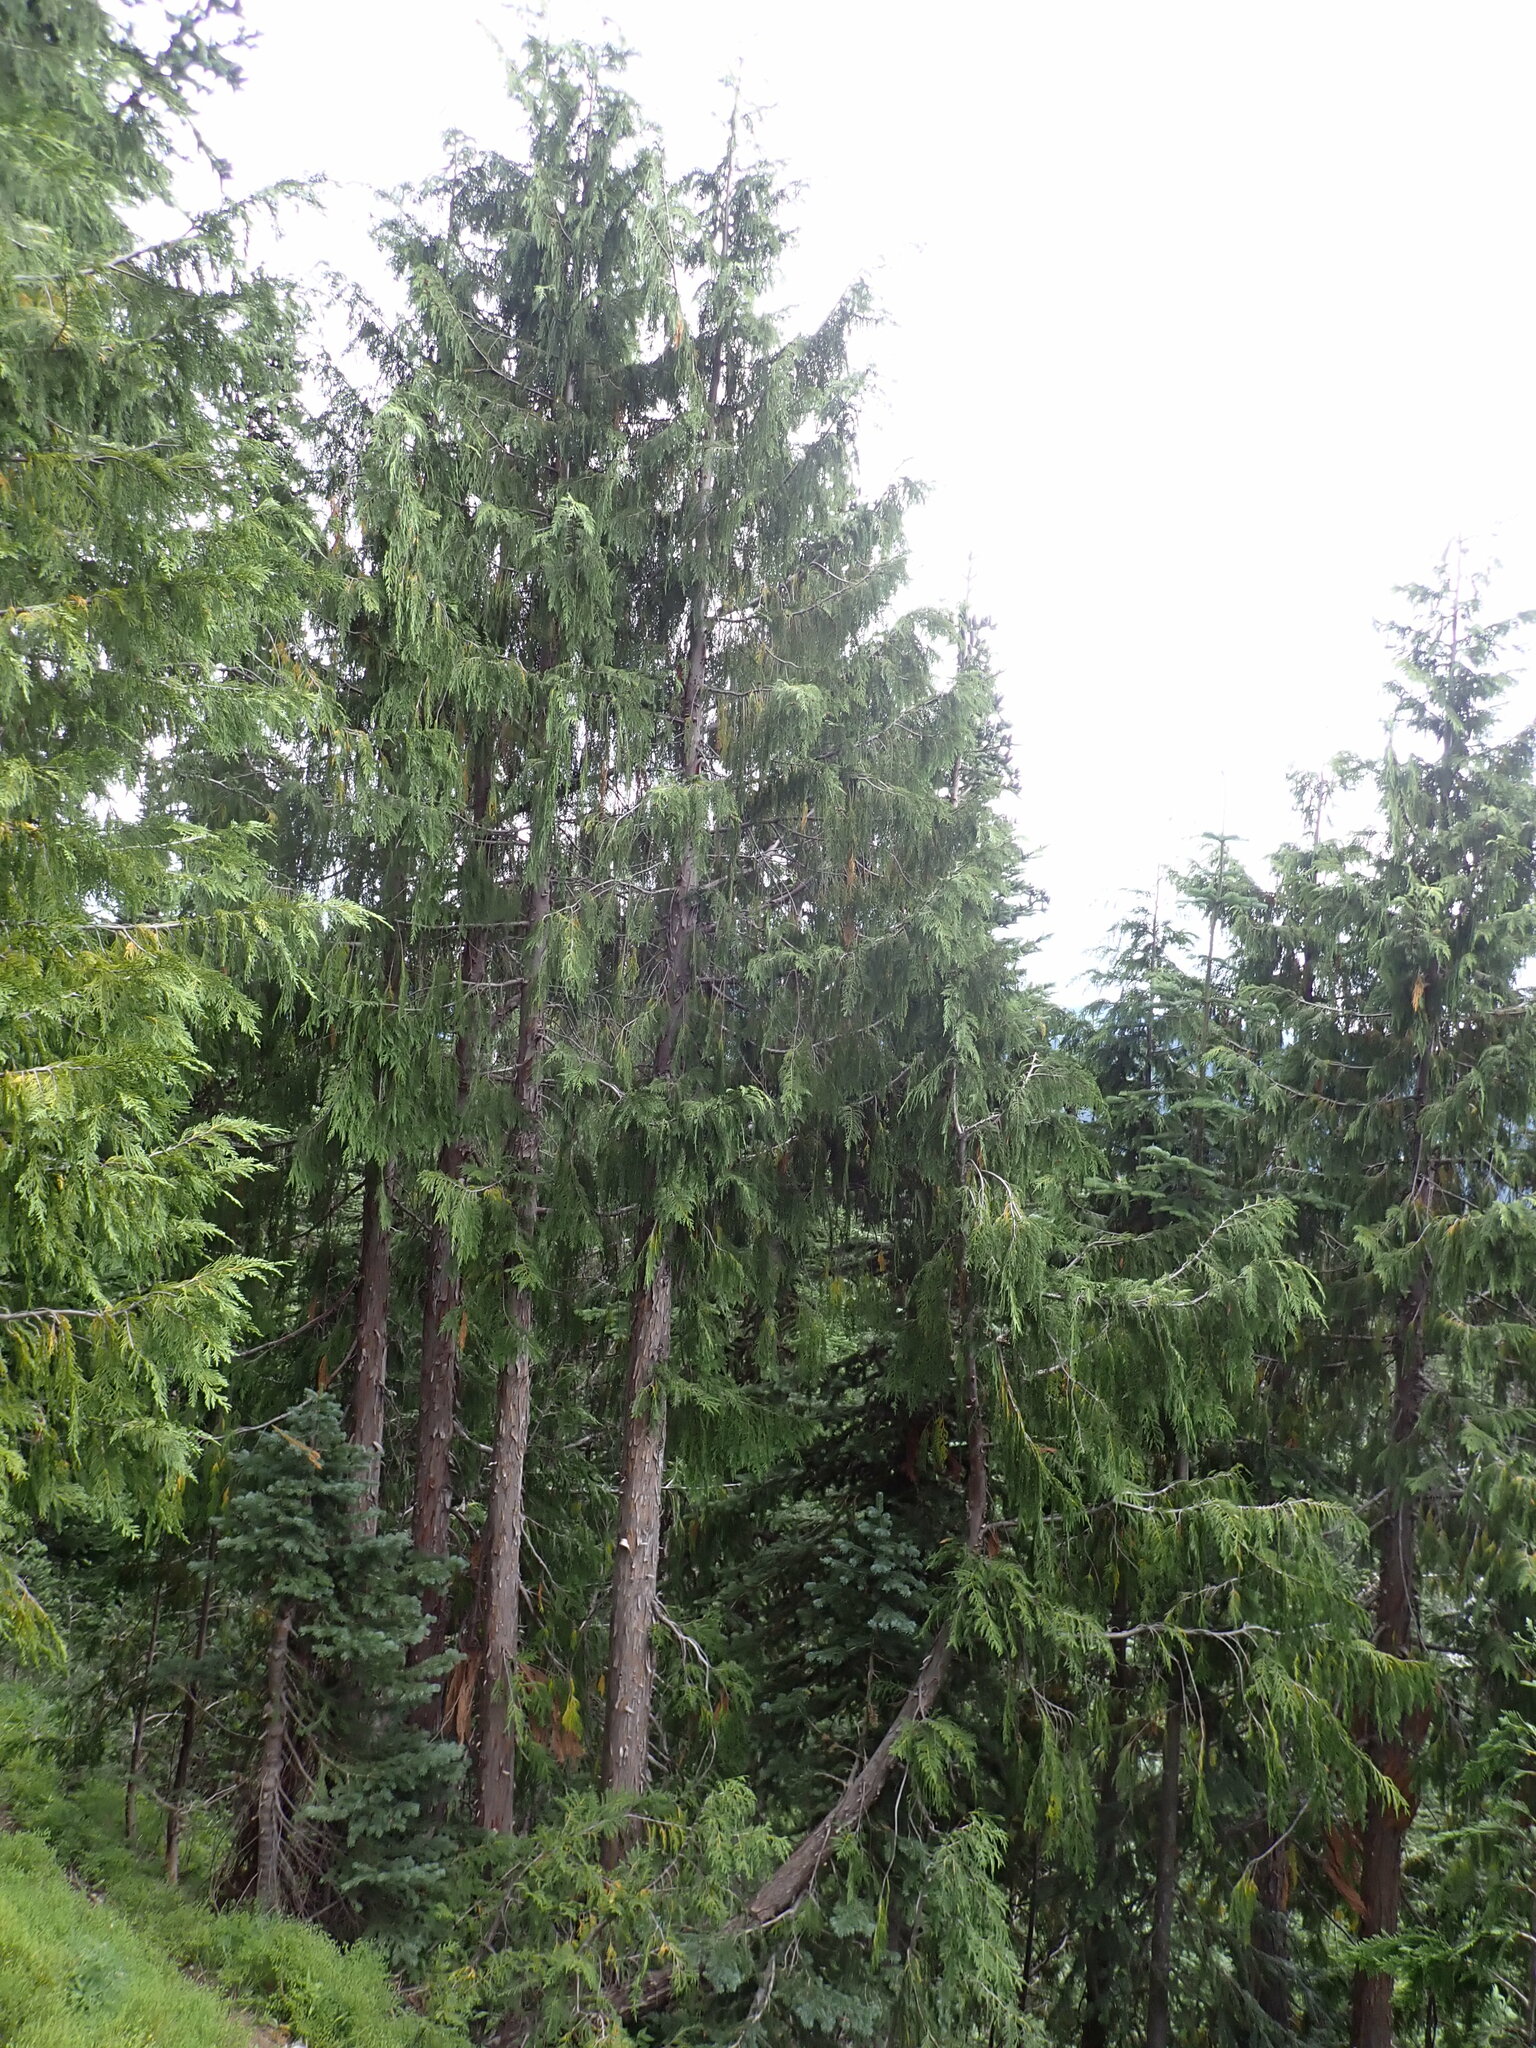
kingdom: Plantae
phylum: Tracheophyta
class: Pinopsida
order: Pinales
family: Cupressaceae
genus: Xanthocyparis
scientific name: Xanthocyparis nootkatensis
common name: Nootka cypress
